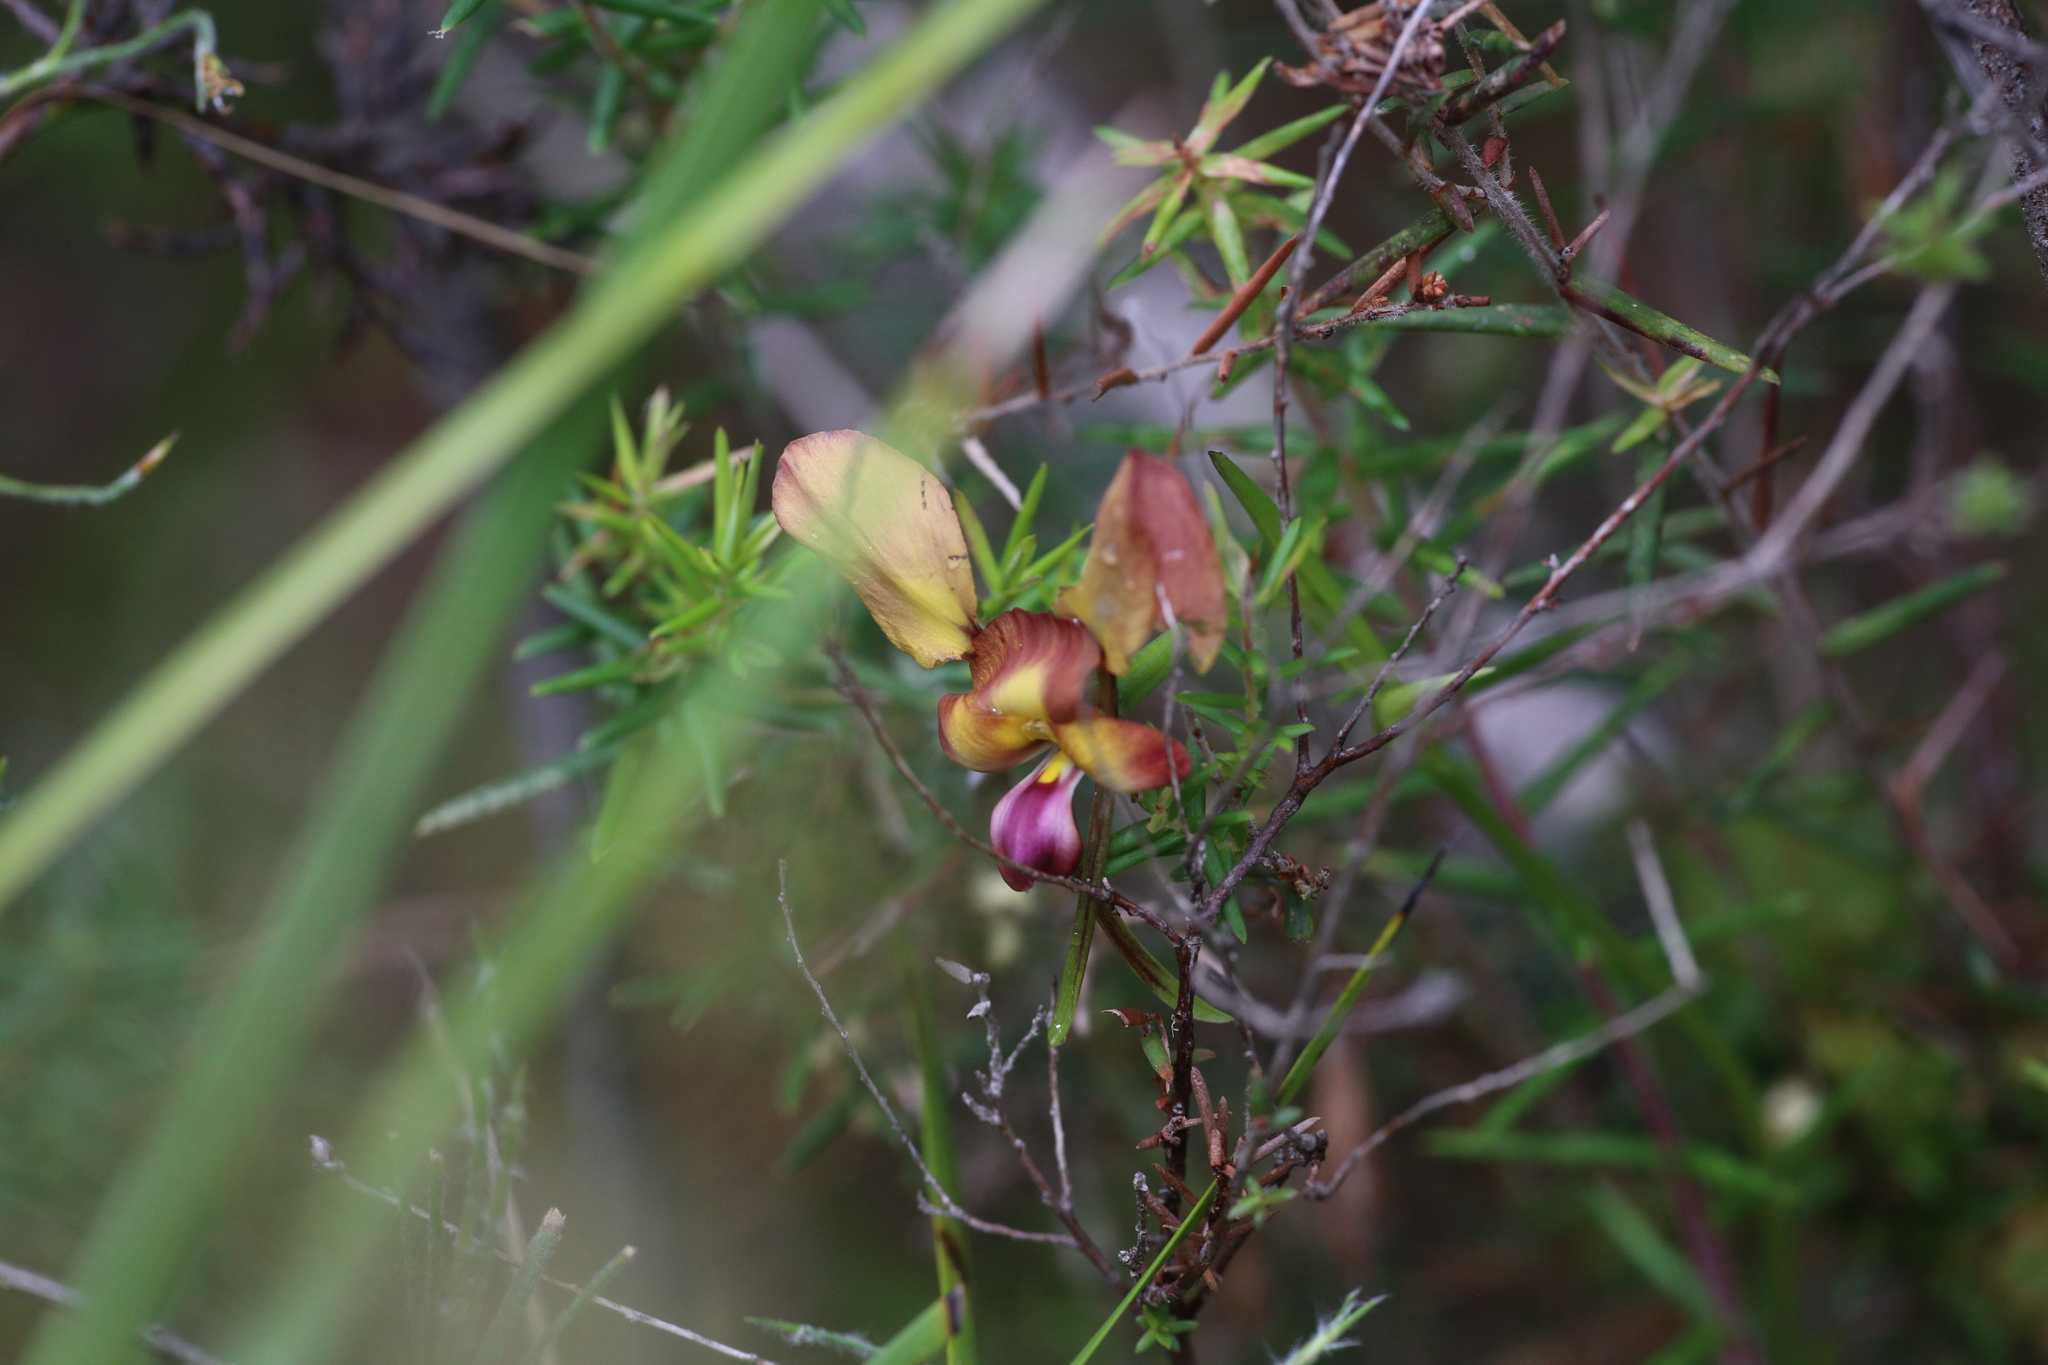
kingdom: Plantae
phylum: Tracheophyta
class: Liliopsida
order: Asparagales
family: Orchidaceae
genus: Diuris
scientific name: Diuris jonesii
